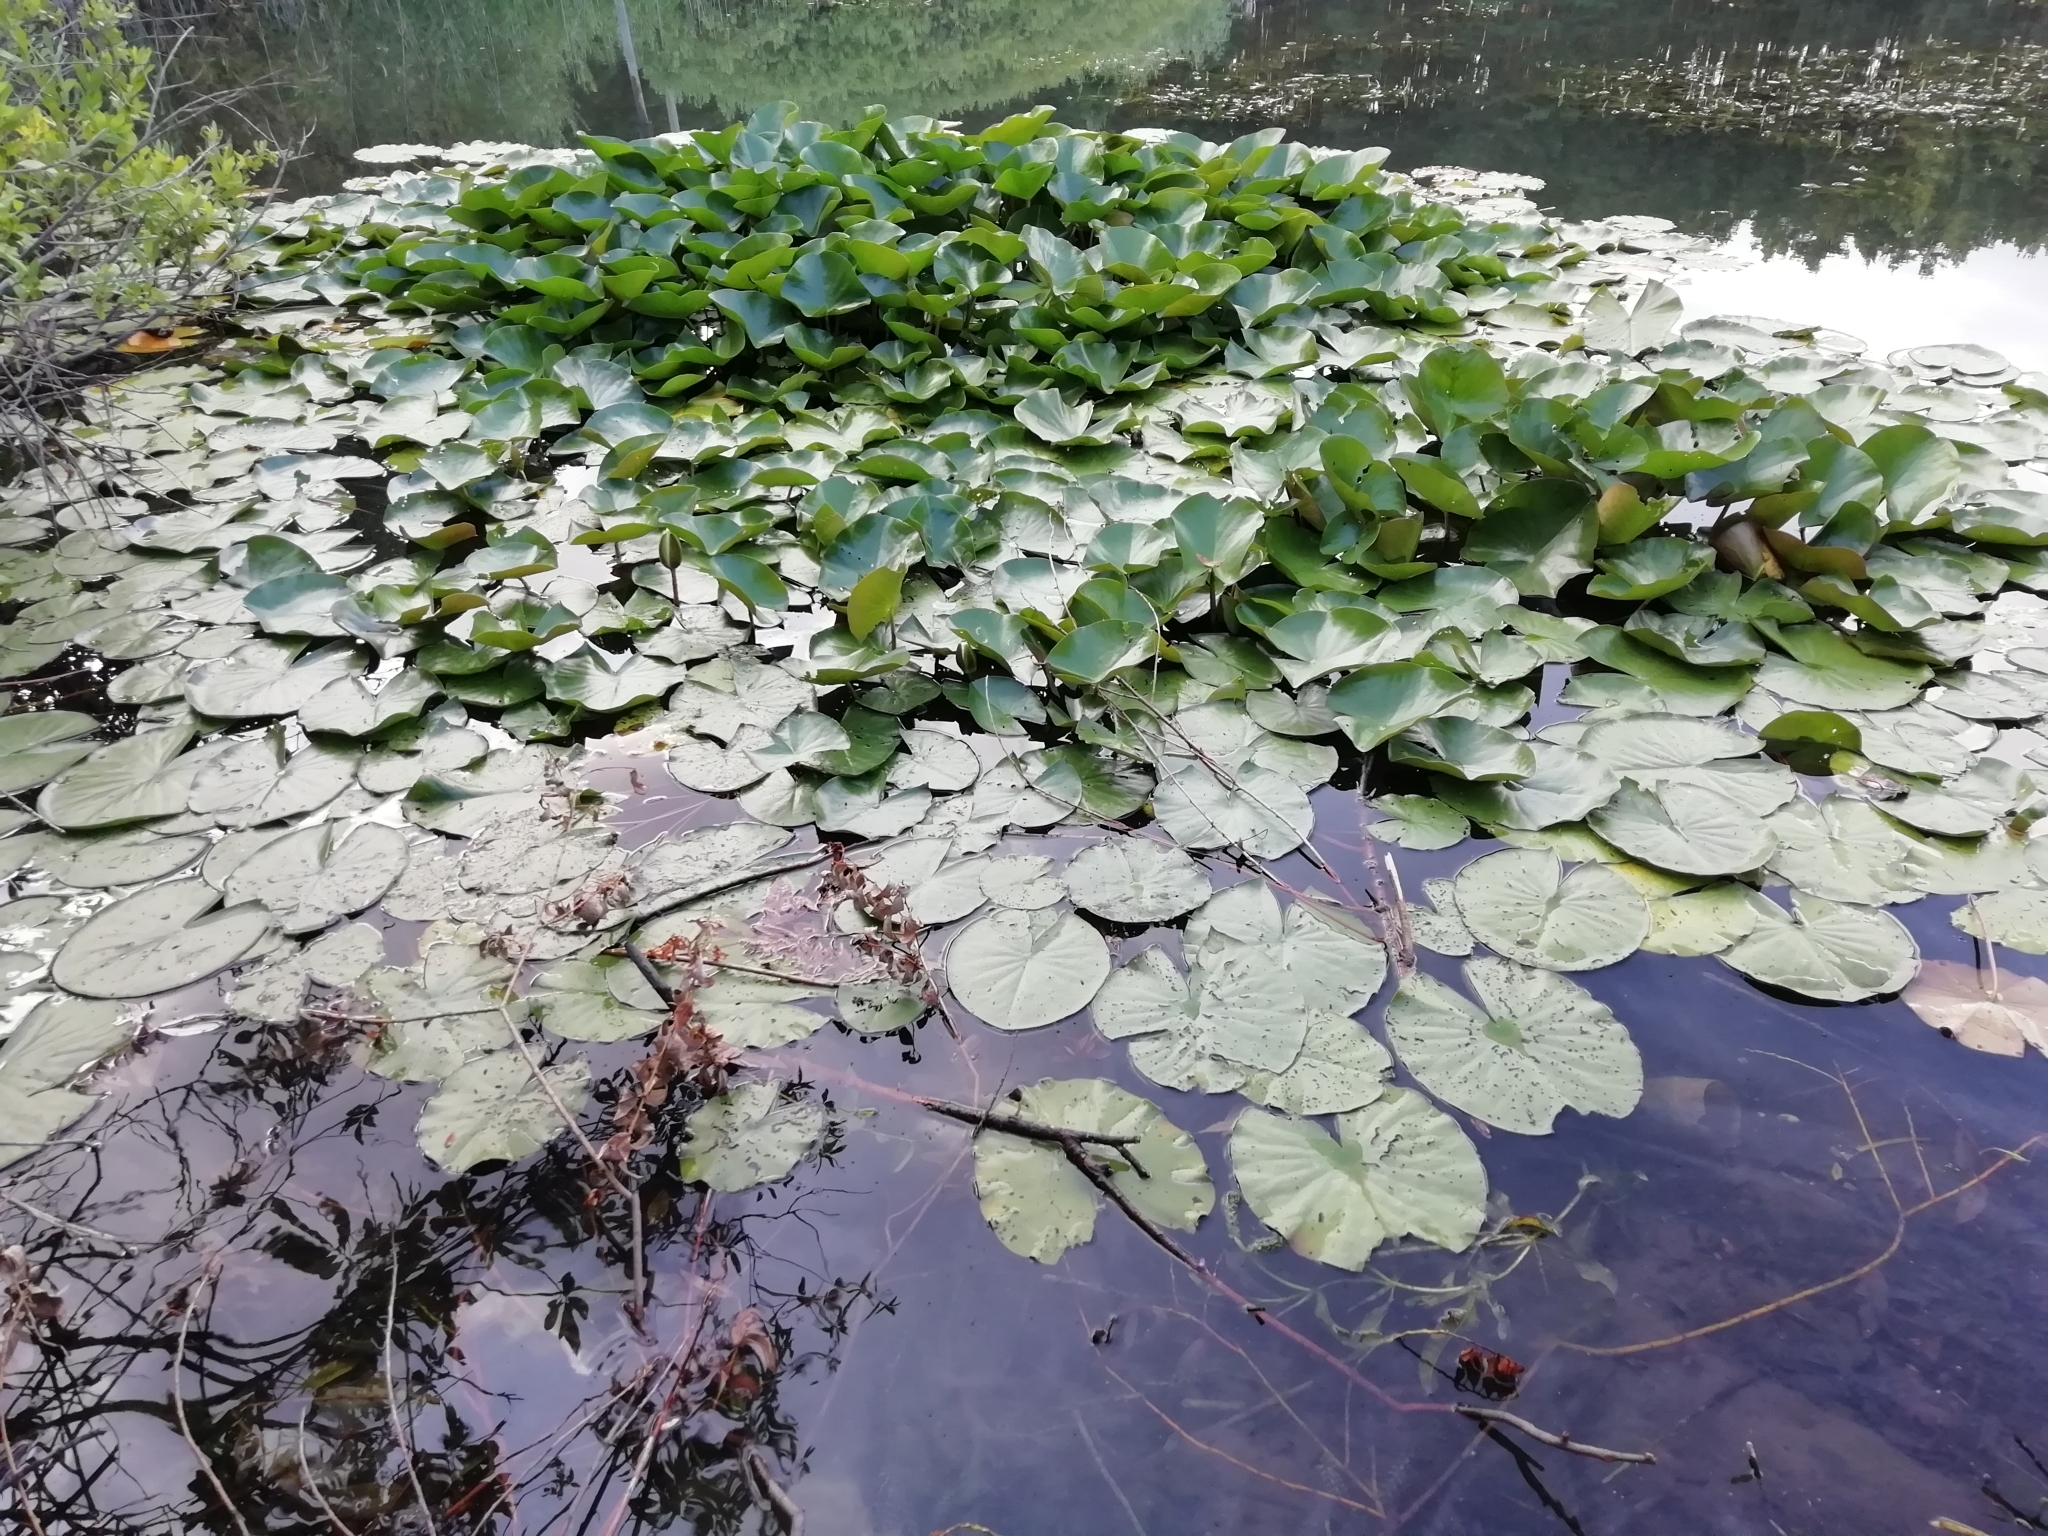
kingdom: Plantae
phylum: Tracheophyta
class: Magnoliopsida
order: Nymphaeales
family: Nymphaeaceae
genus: Nymphaea
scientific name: Nymphaea alba
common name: White water-lily
